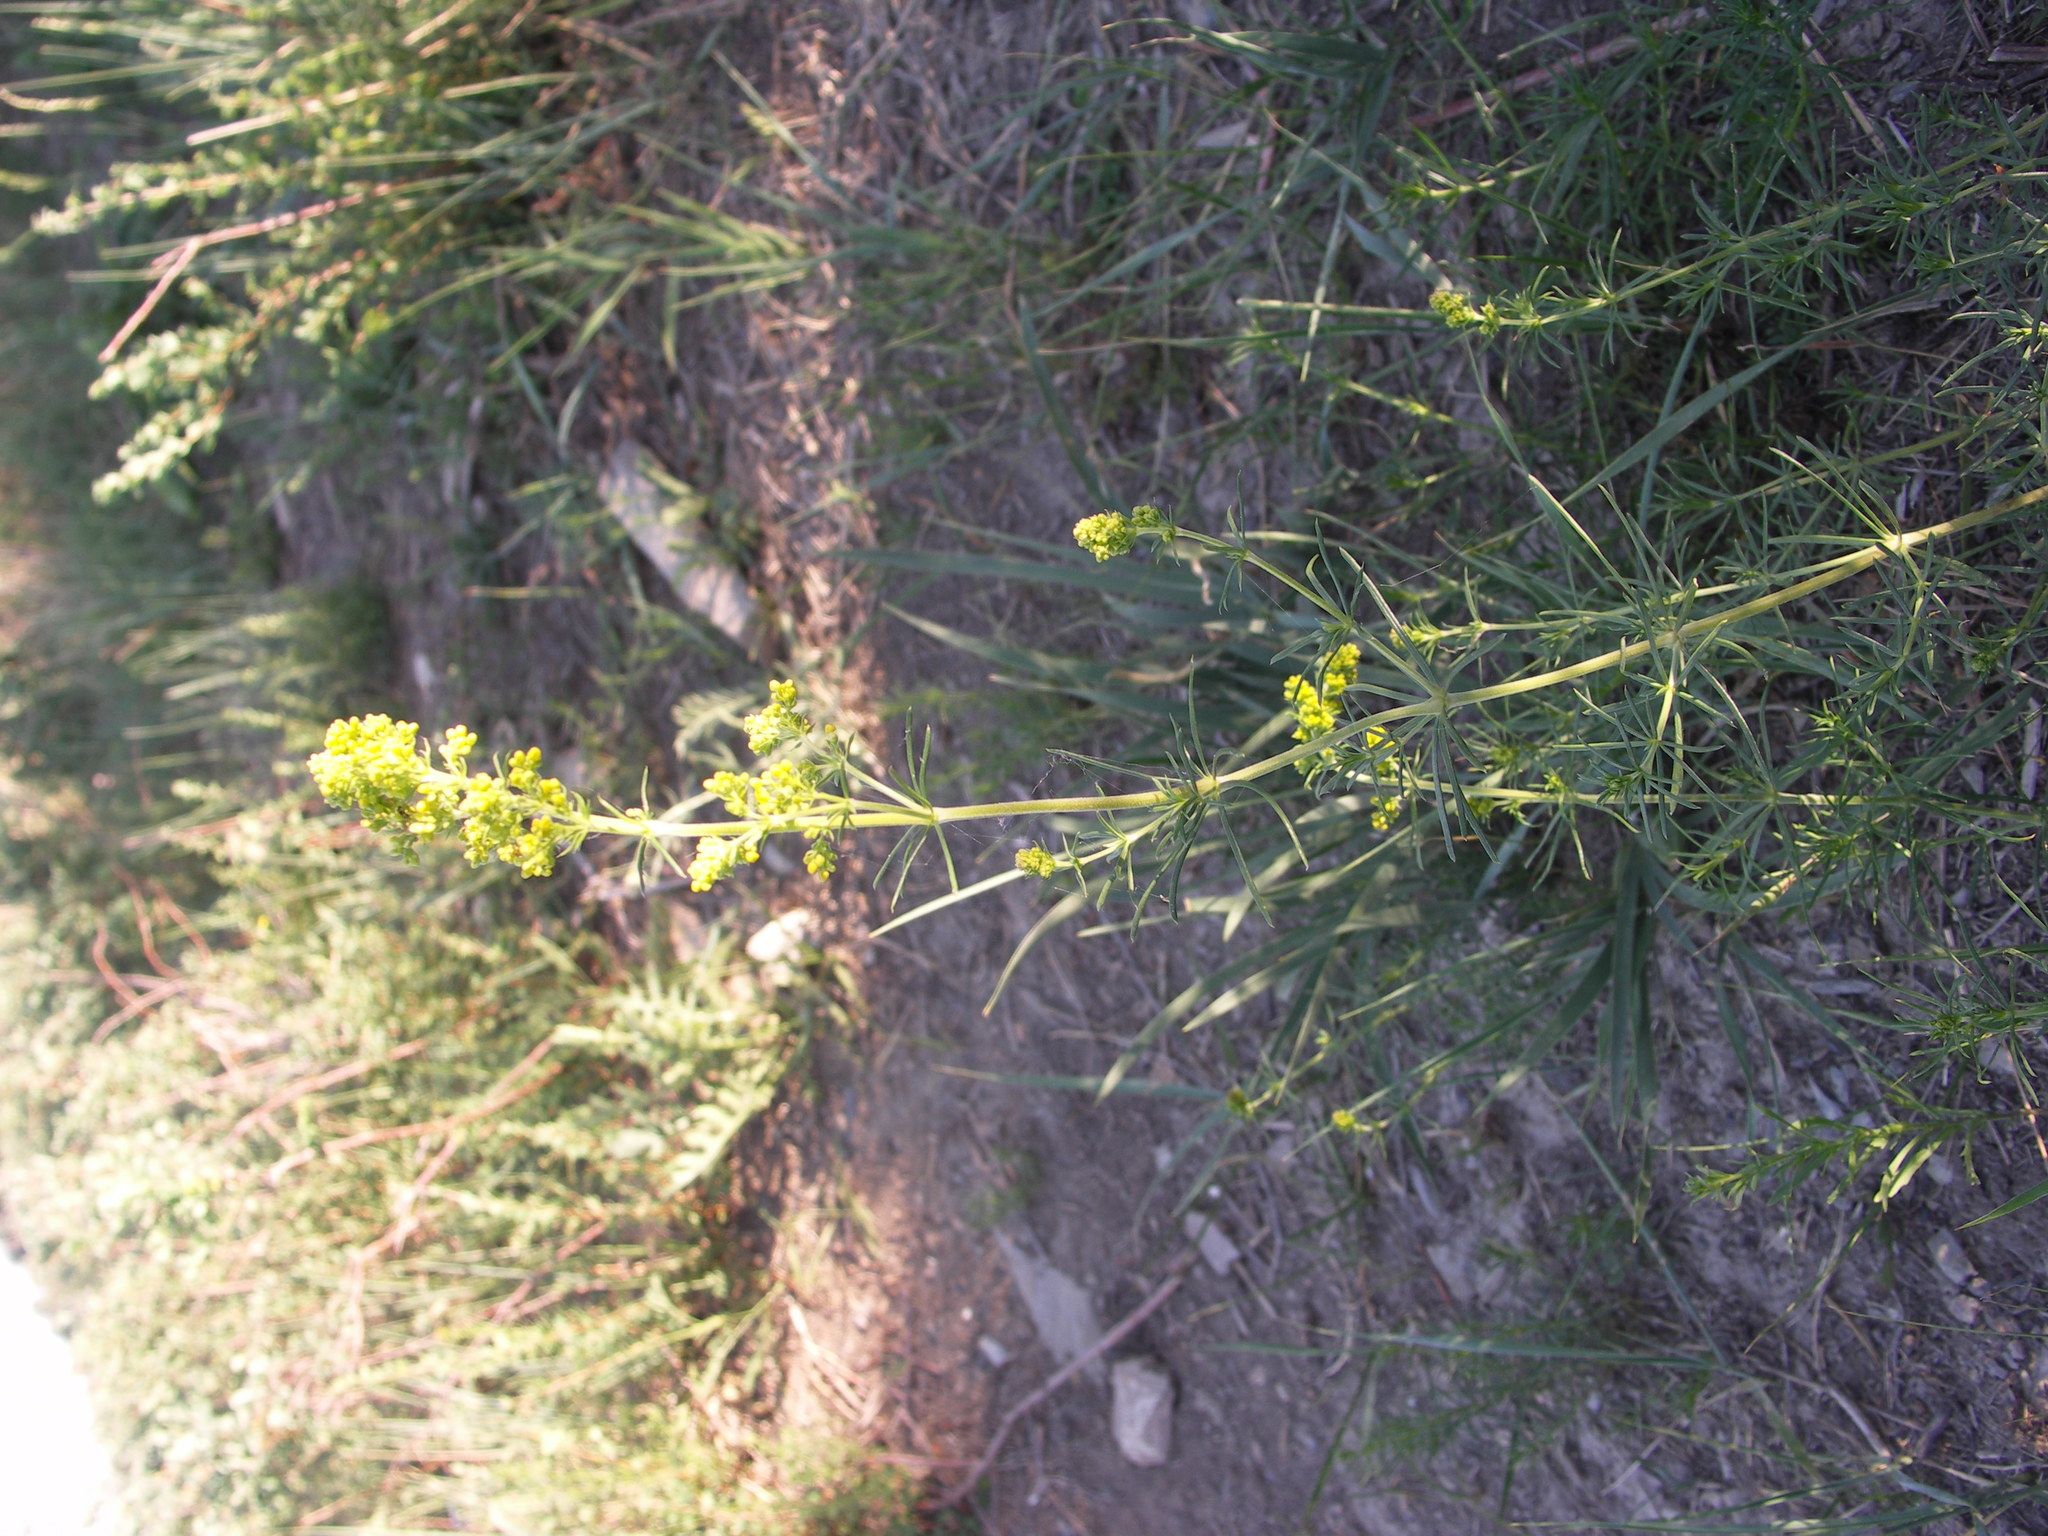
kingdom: Plantae
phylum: Tracheophyta
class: Magnoliopsida
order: Gentianales
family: Rubiaceae
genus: Galium
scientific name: Galium verum
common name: Lady's bedstraw
